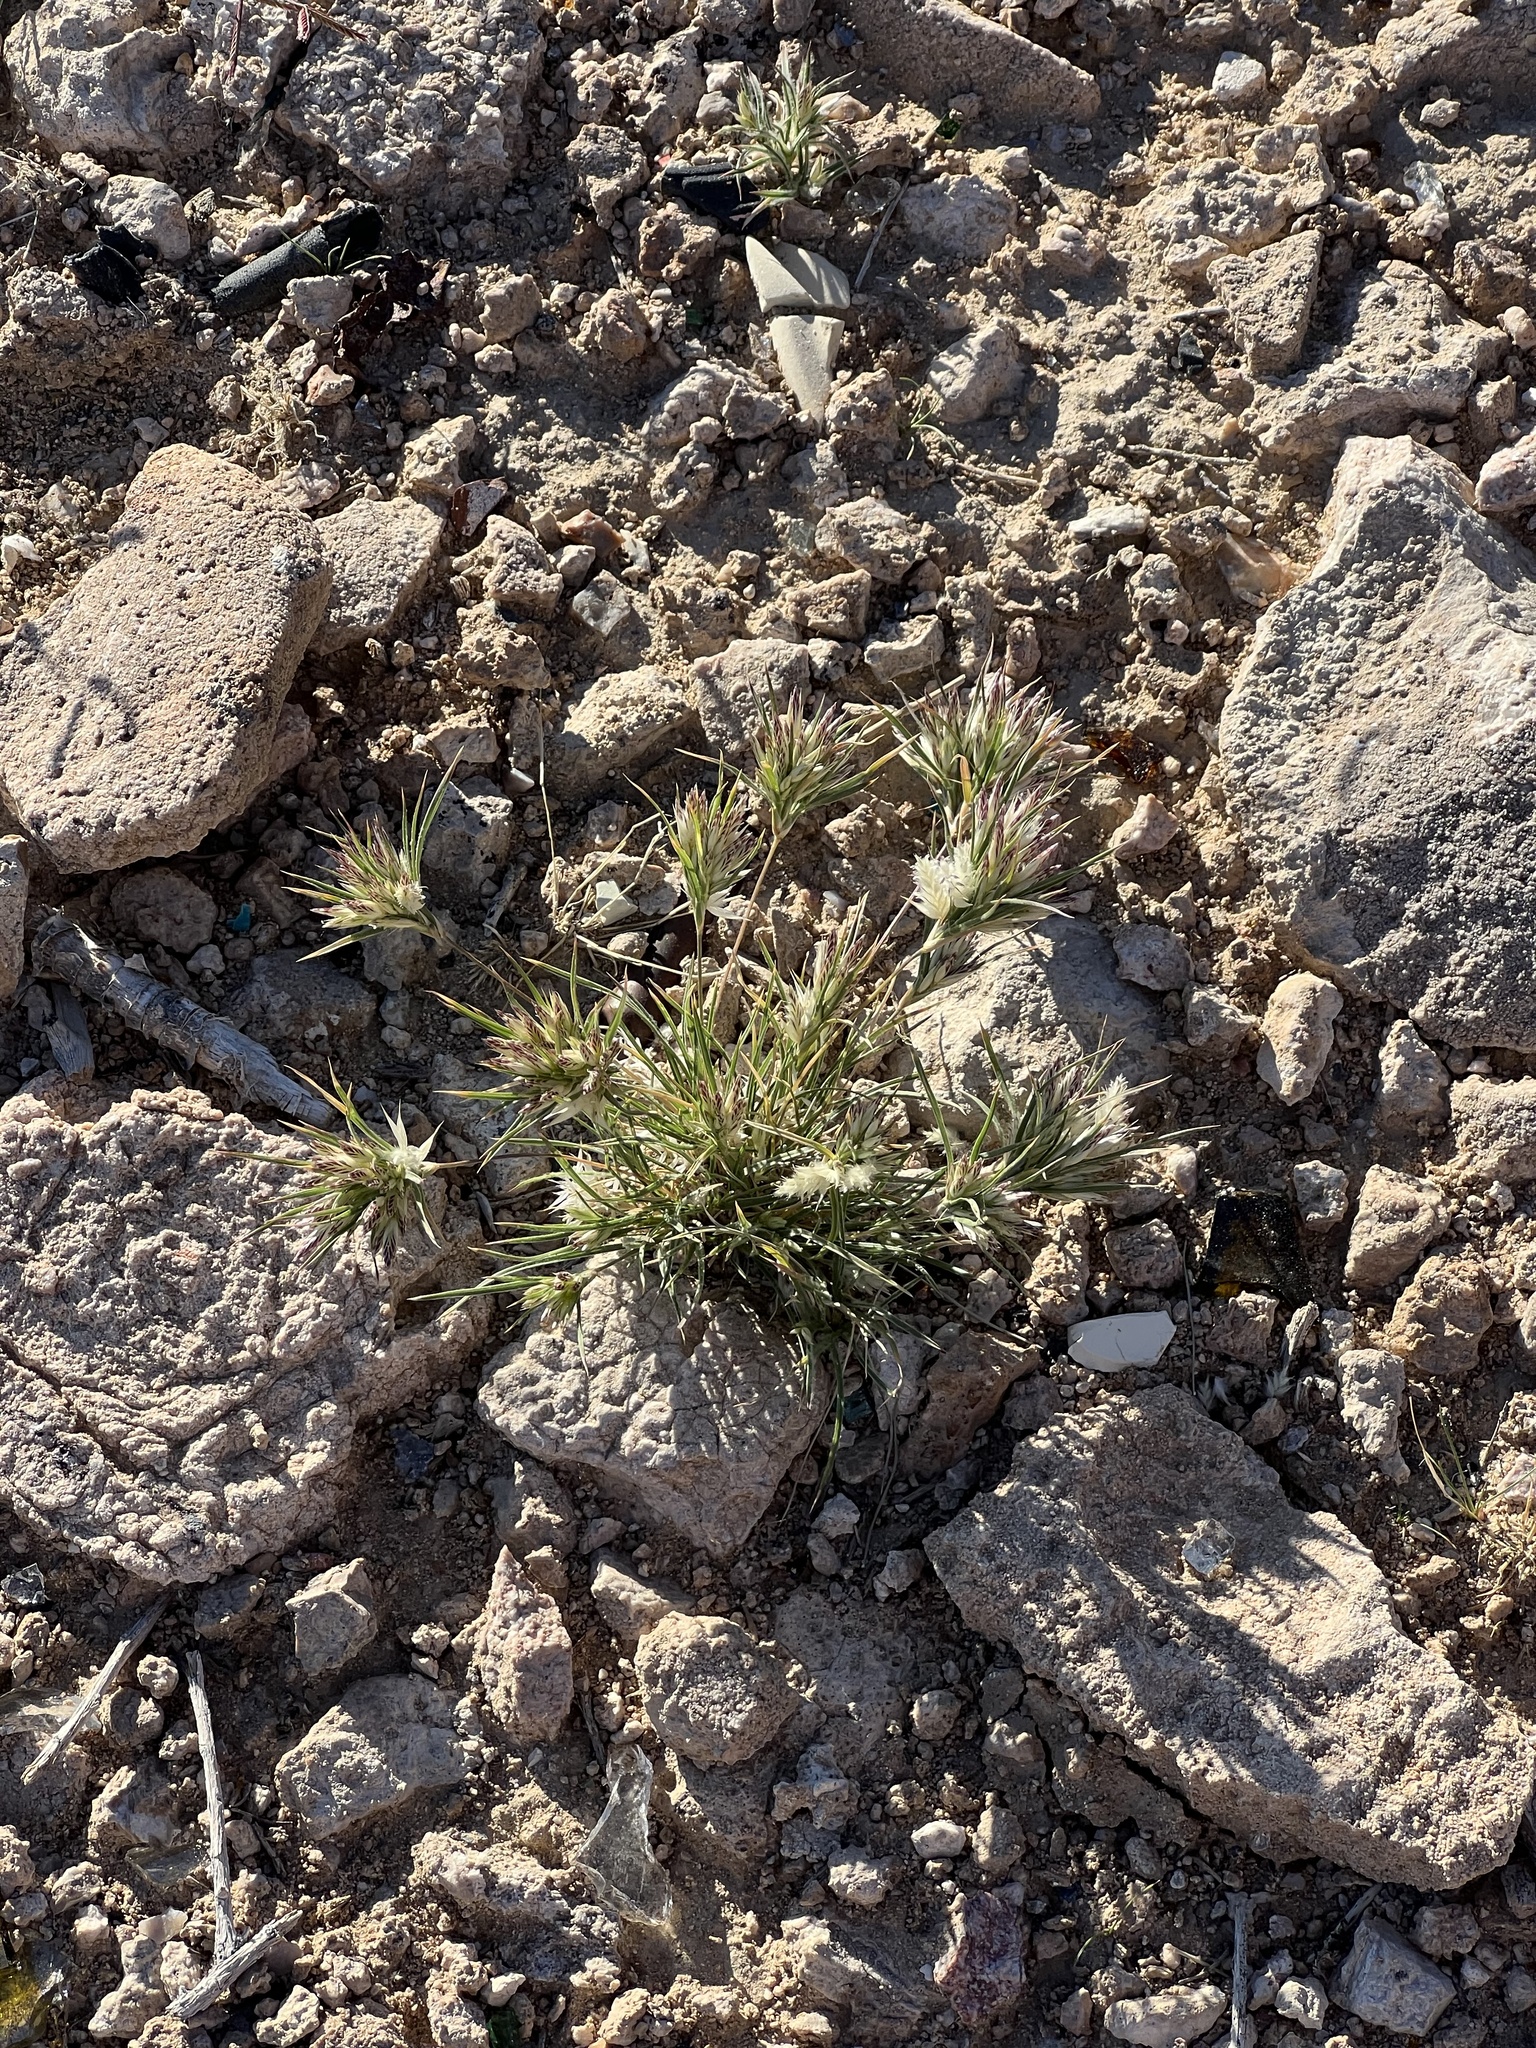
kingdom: Plantae
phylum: Tracheophyta
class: Liliopsida
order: Poales
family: Poaceae
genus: Dasyochloa
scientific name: Dasyochloa pulchella
